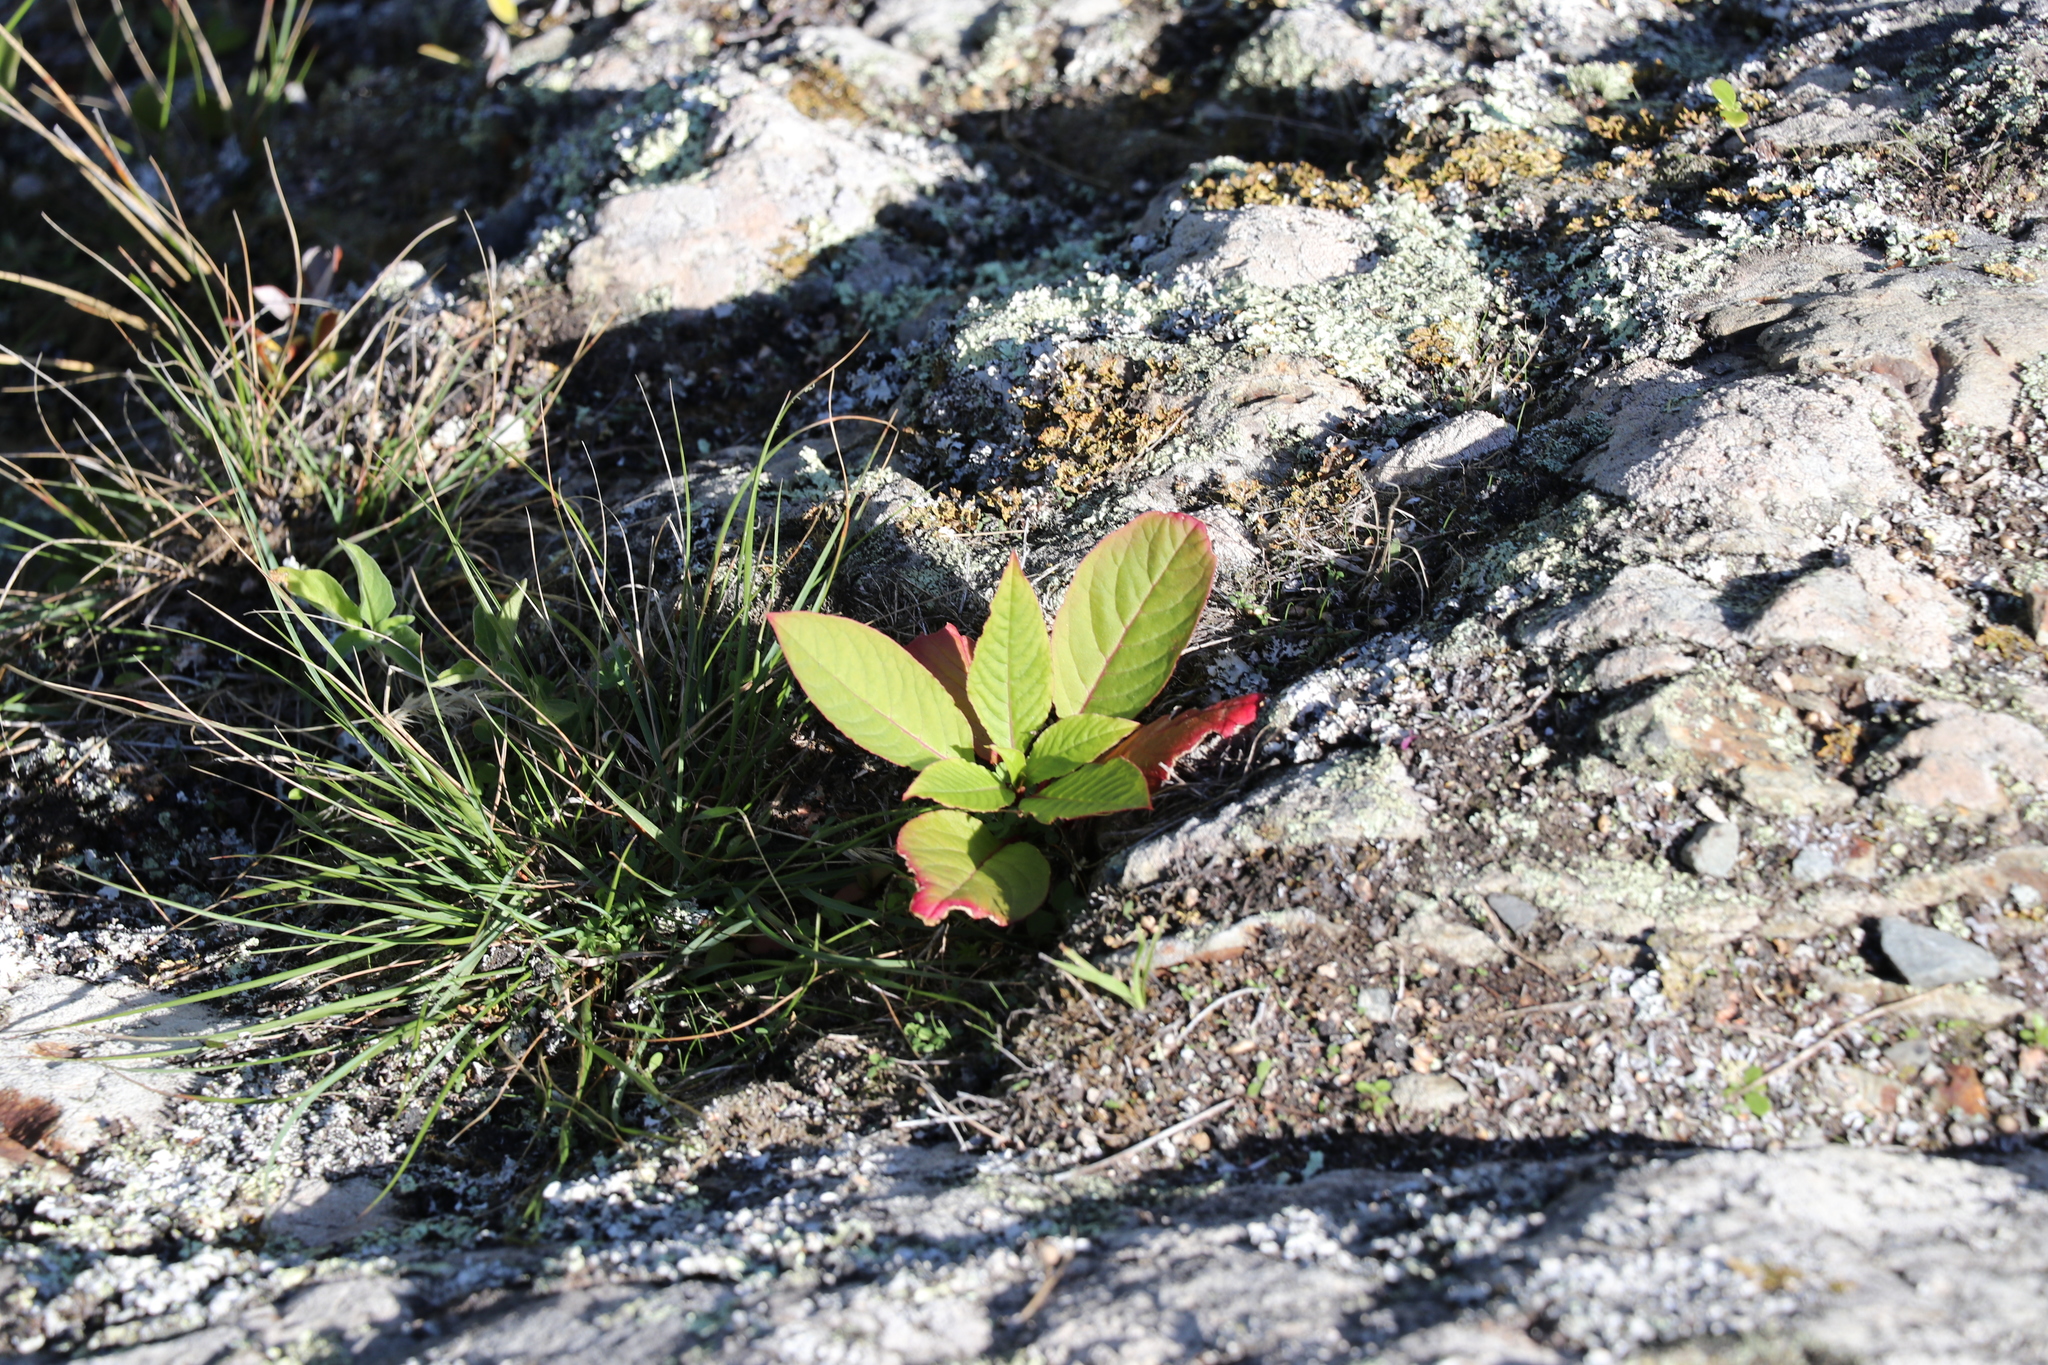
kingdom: Plantae
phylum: Tracheophyta
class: Magnoliopsida
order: Caryophyllales
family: Phytolaccaceae
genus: Phytolacca
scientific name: Phytolacca icosandra
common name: Button pokeweed
